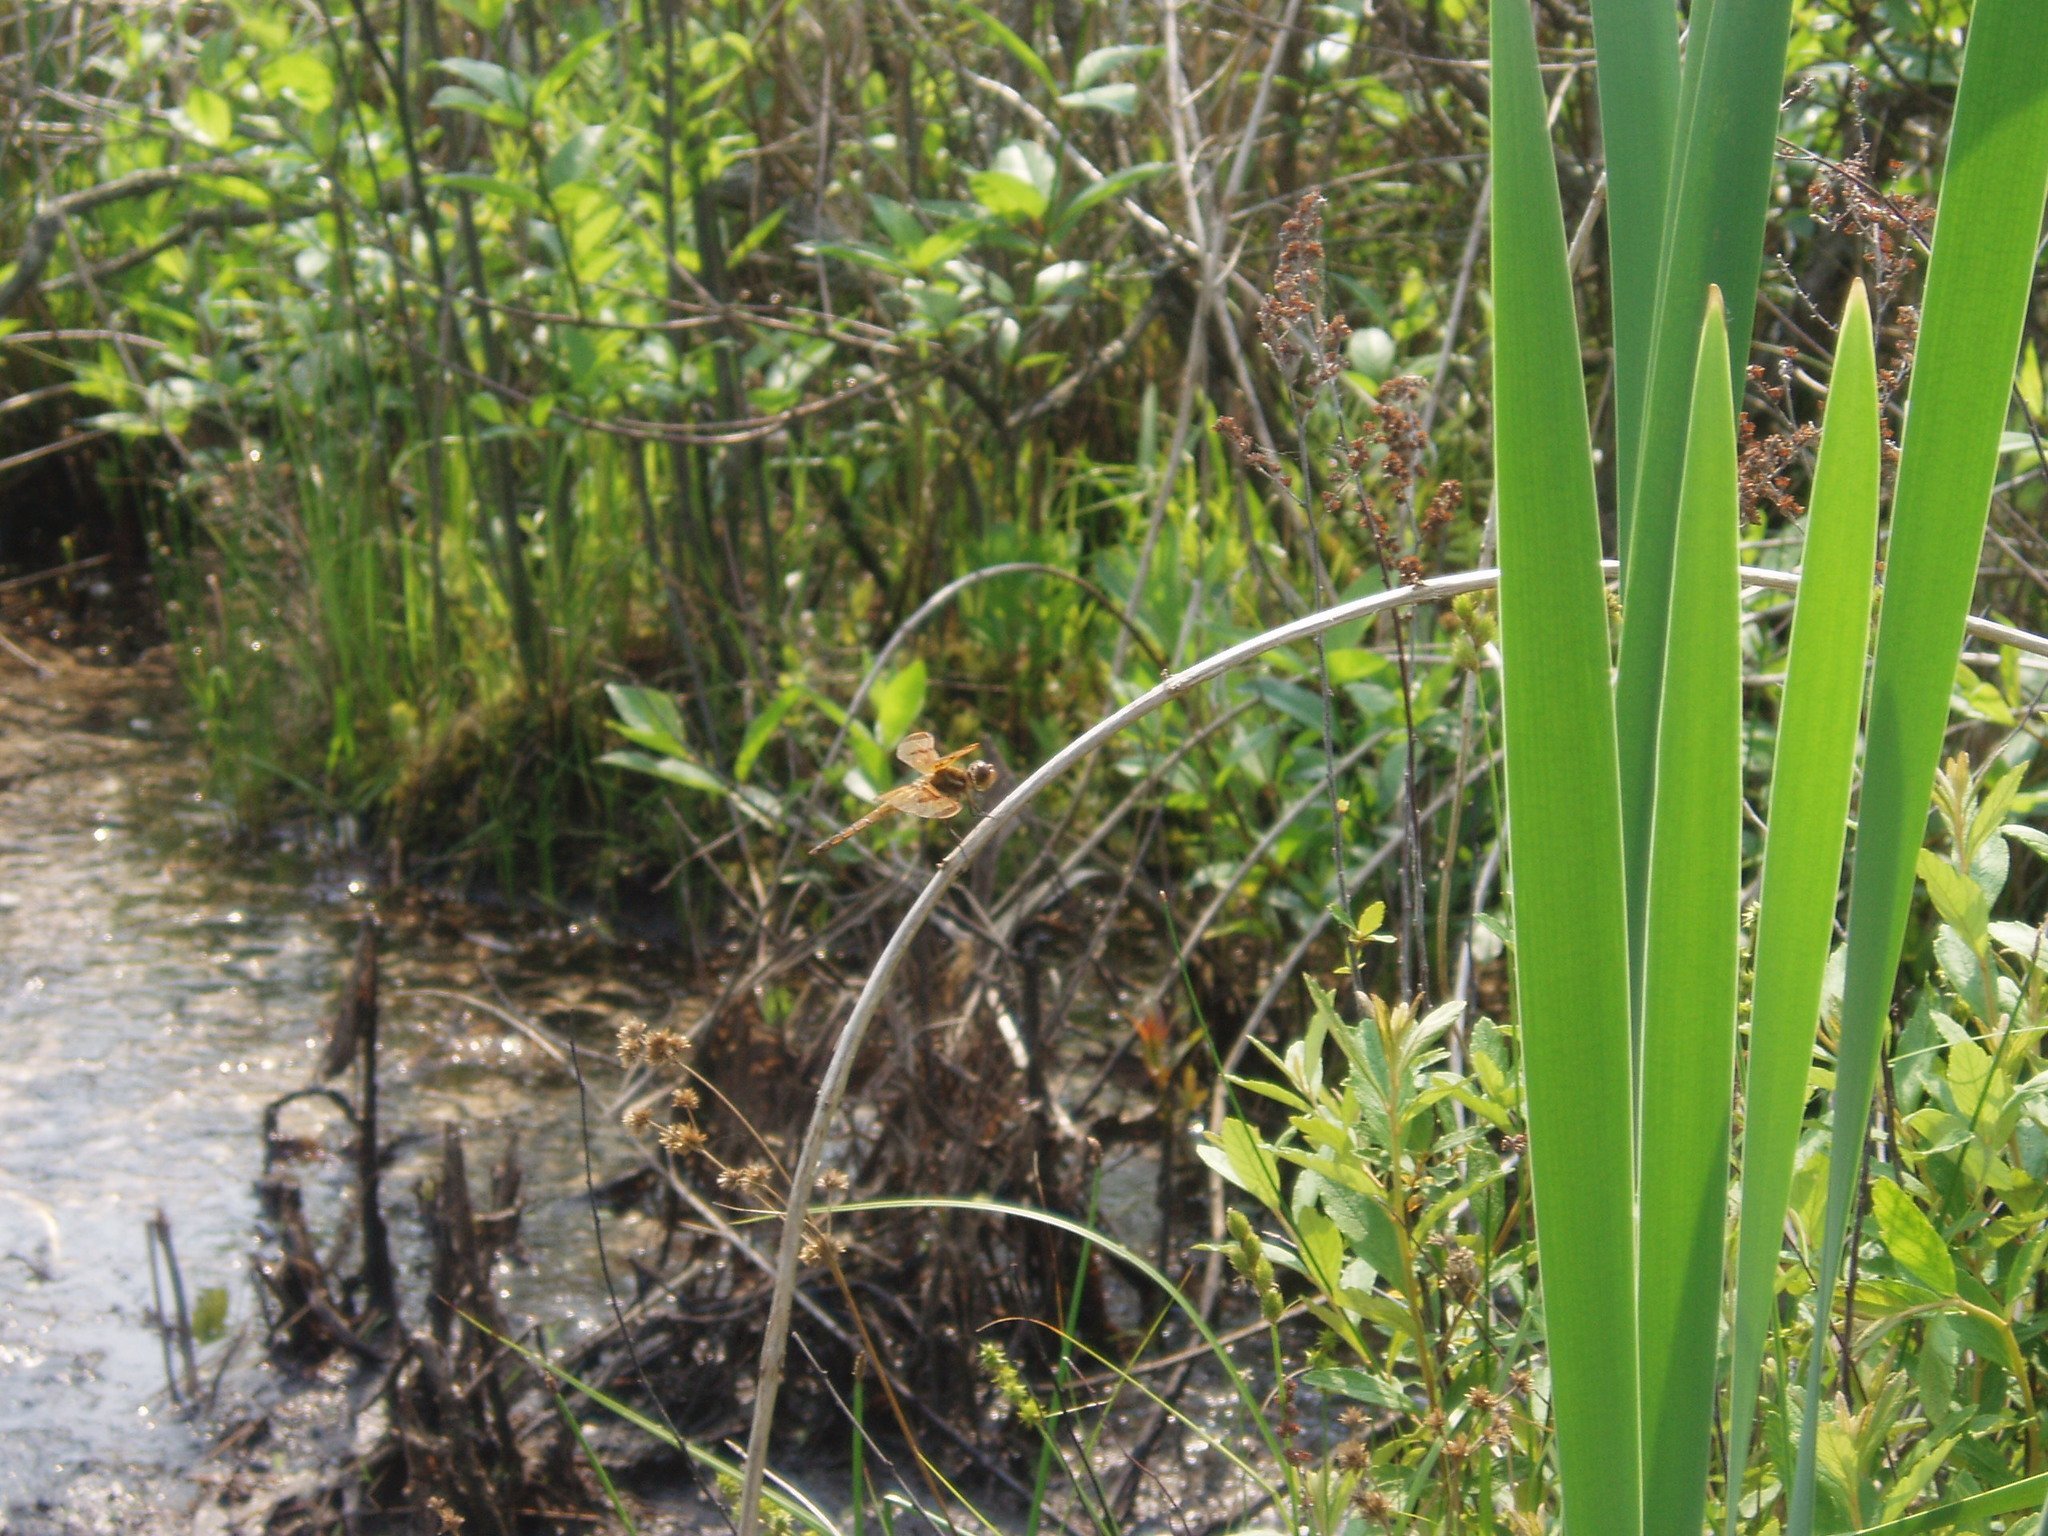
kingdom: Animalia
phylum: Arthropoda
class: Insecta
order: Odonata
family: Libellulidae
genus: Libellula
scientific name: Libellula semifasciata
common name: Painted skimmer
